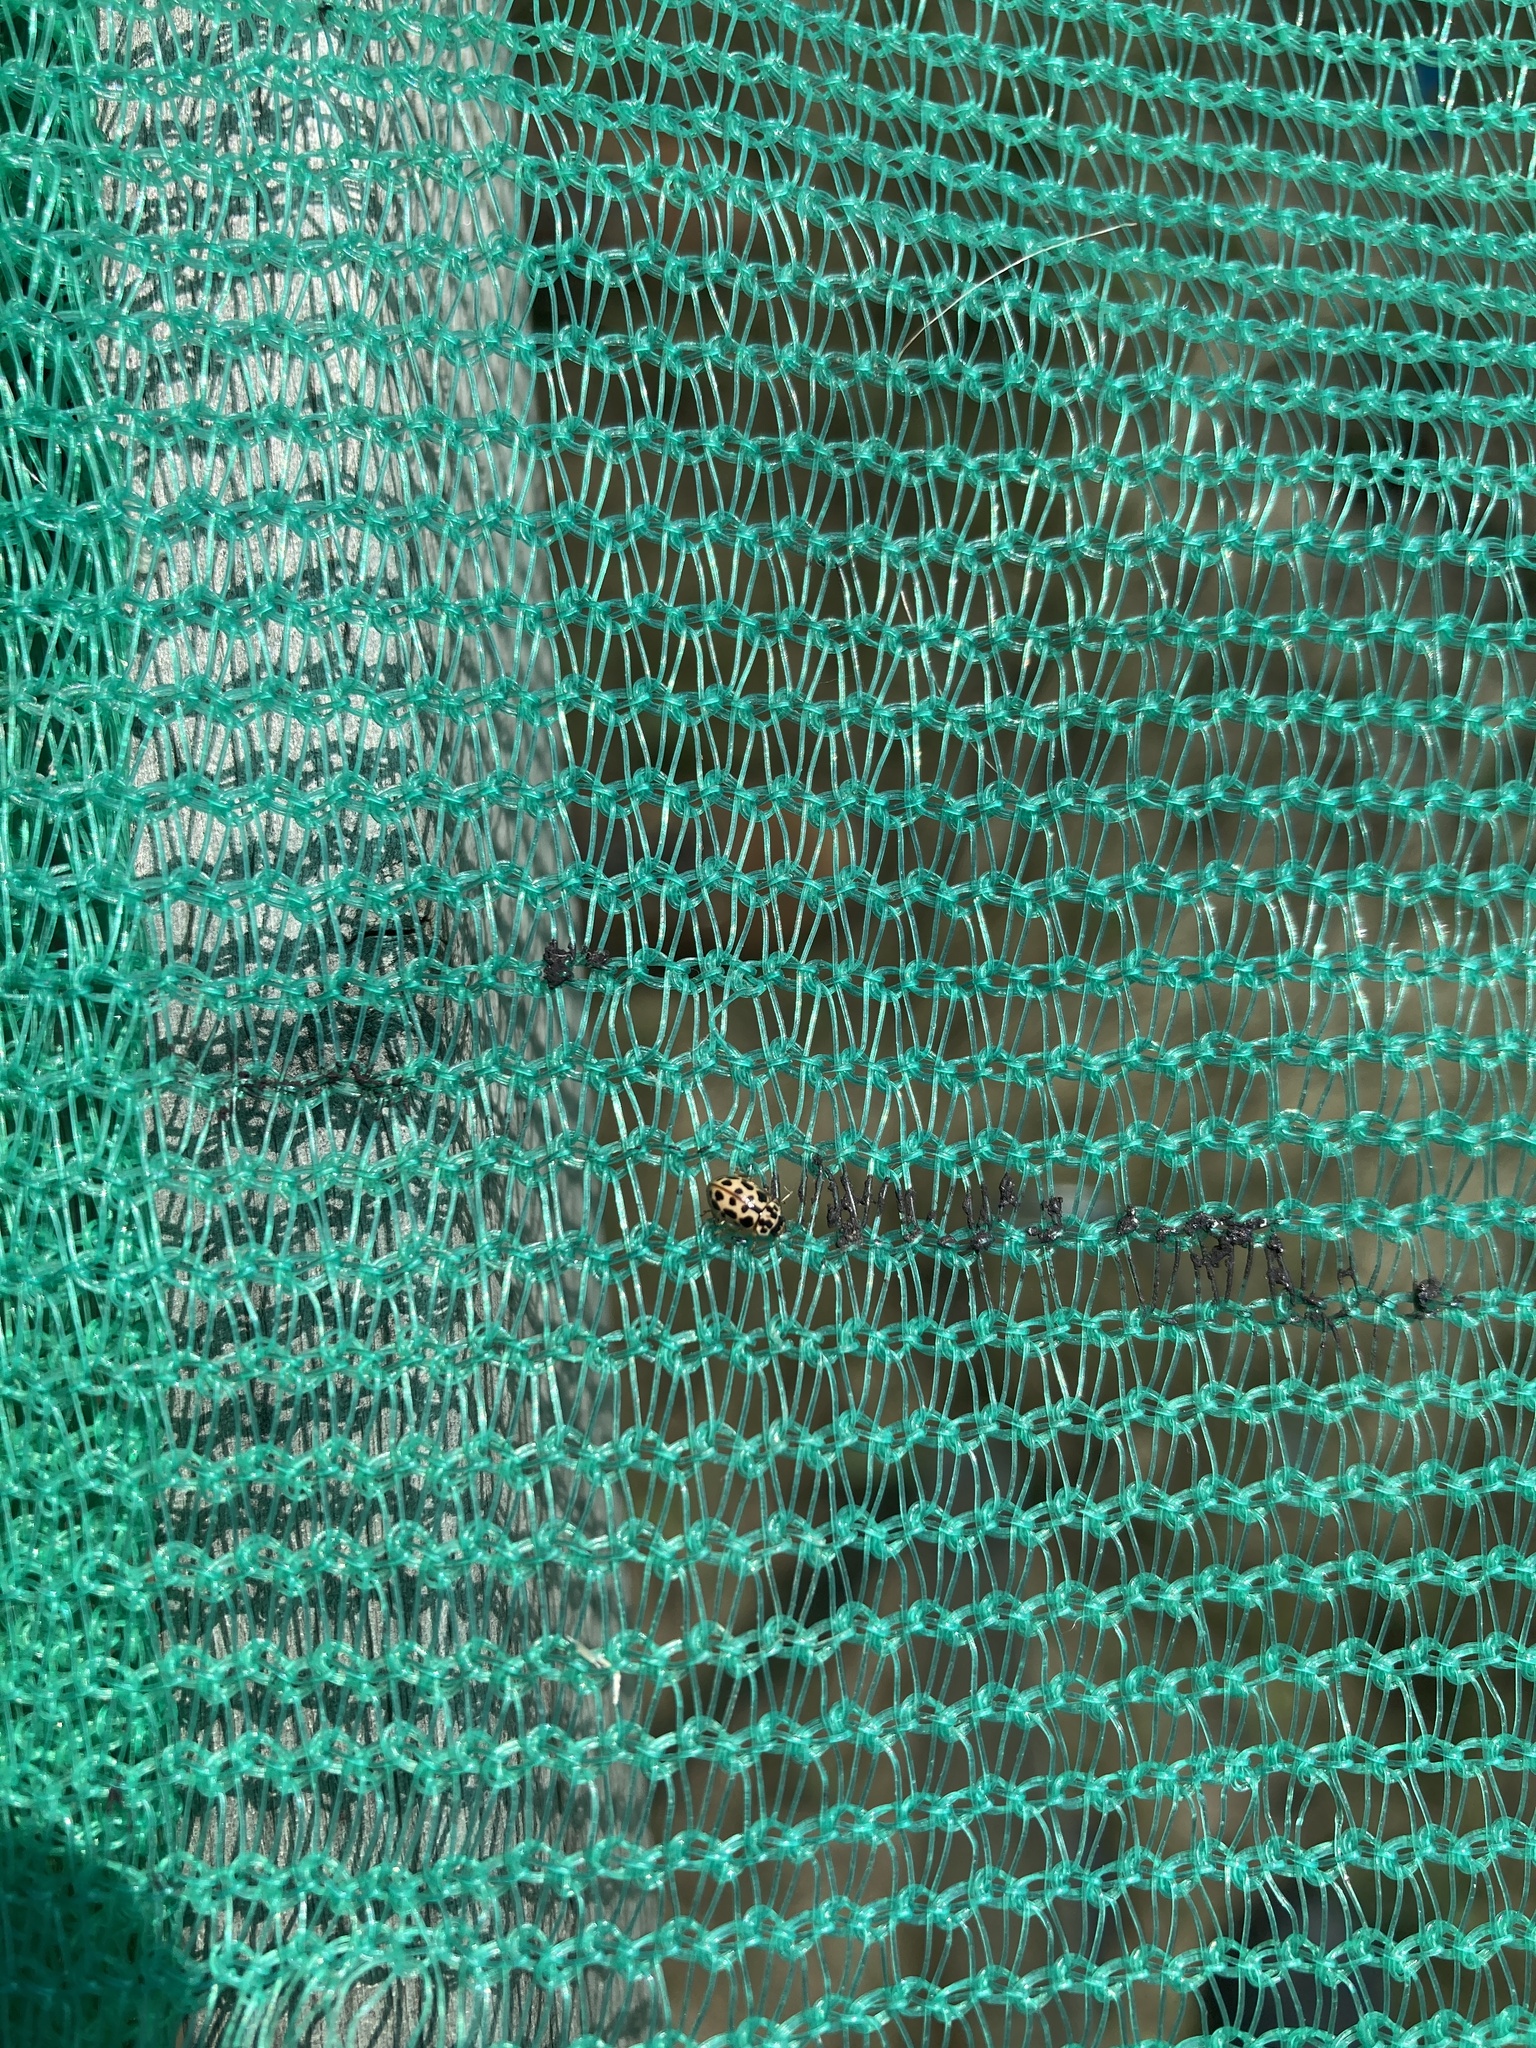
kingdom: Animalia
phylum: Arthropoda
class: Insecta
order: Coleoptera
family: Coccinellidae
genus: Anisosticta
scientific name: Anisosticta bitriangularis
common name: Marsh lady beetle
